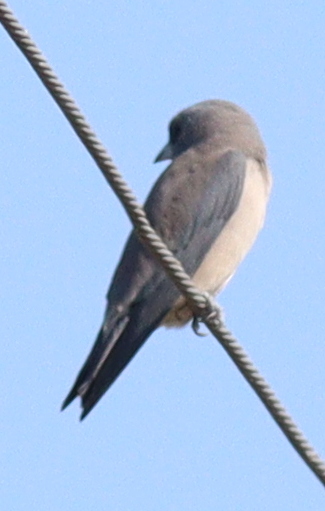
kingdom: Animalia
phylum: Chordata
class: Aves
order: Passeriformes
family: Artamidae
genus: Artamus
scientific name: Artamus fuscus
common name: Ashy woodswallow
